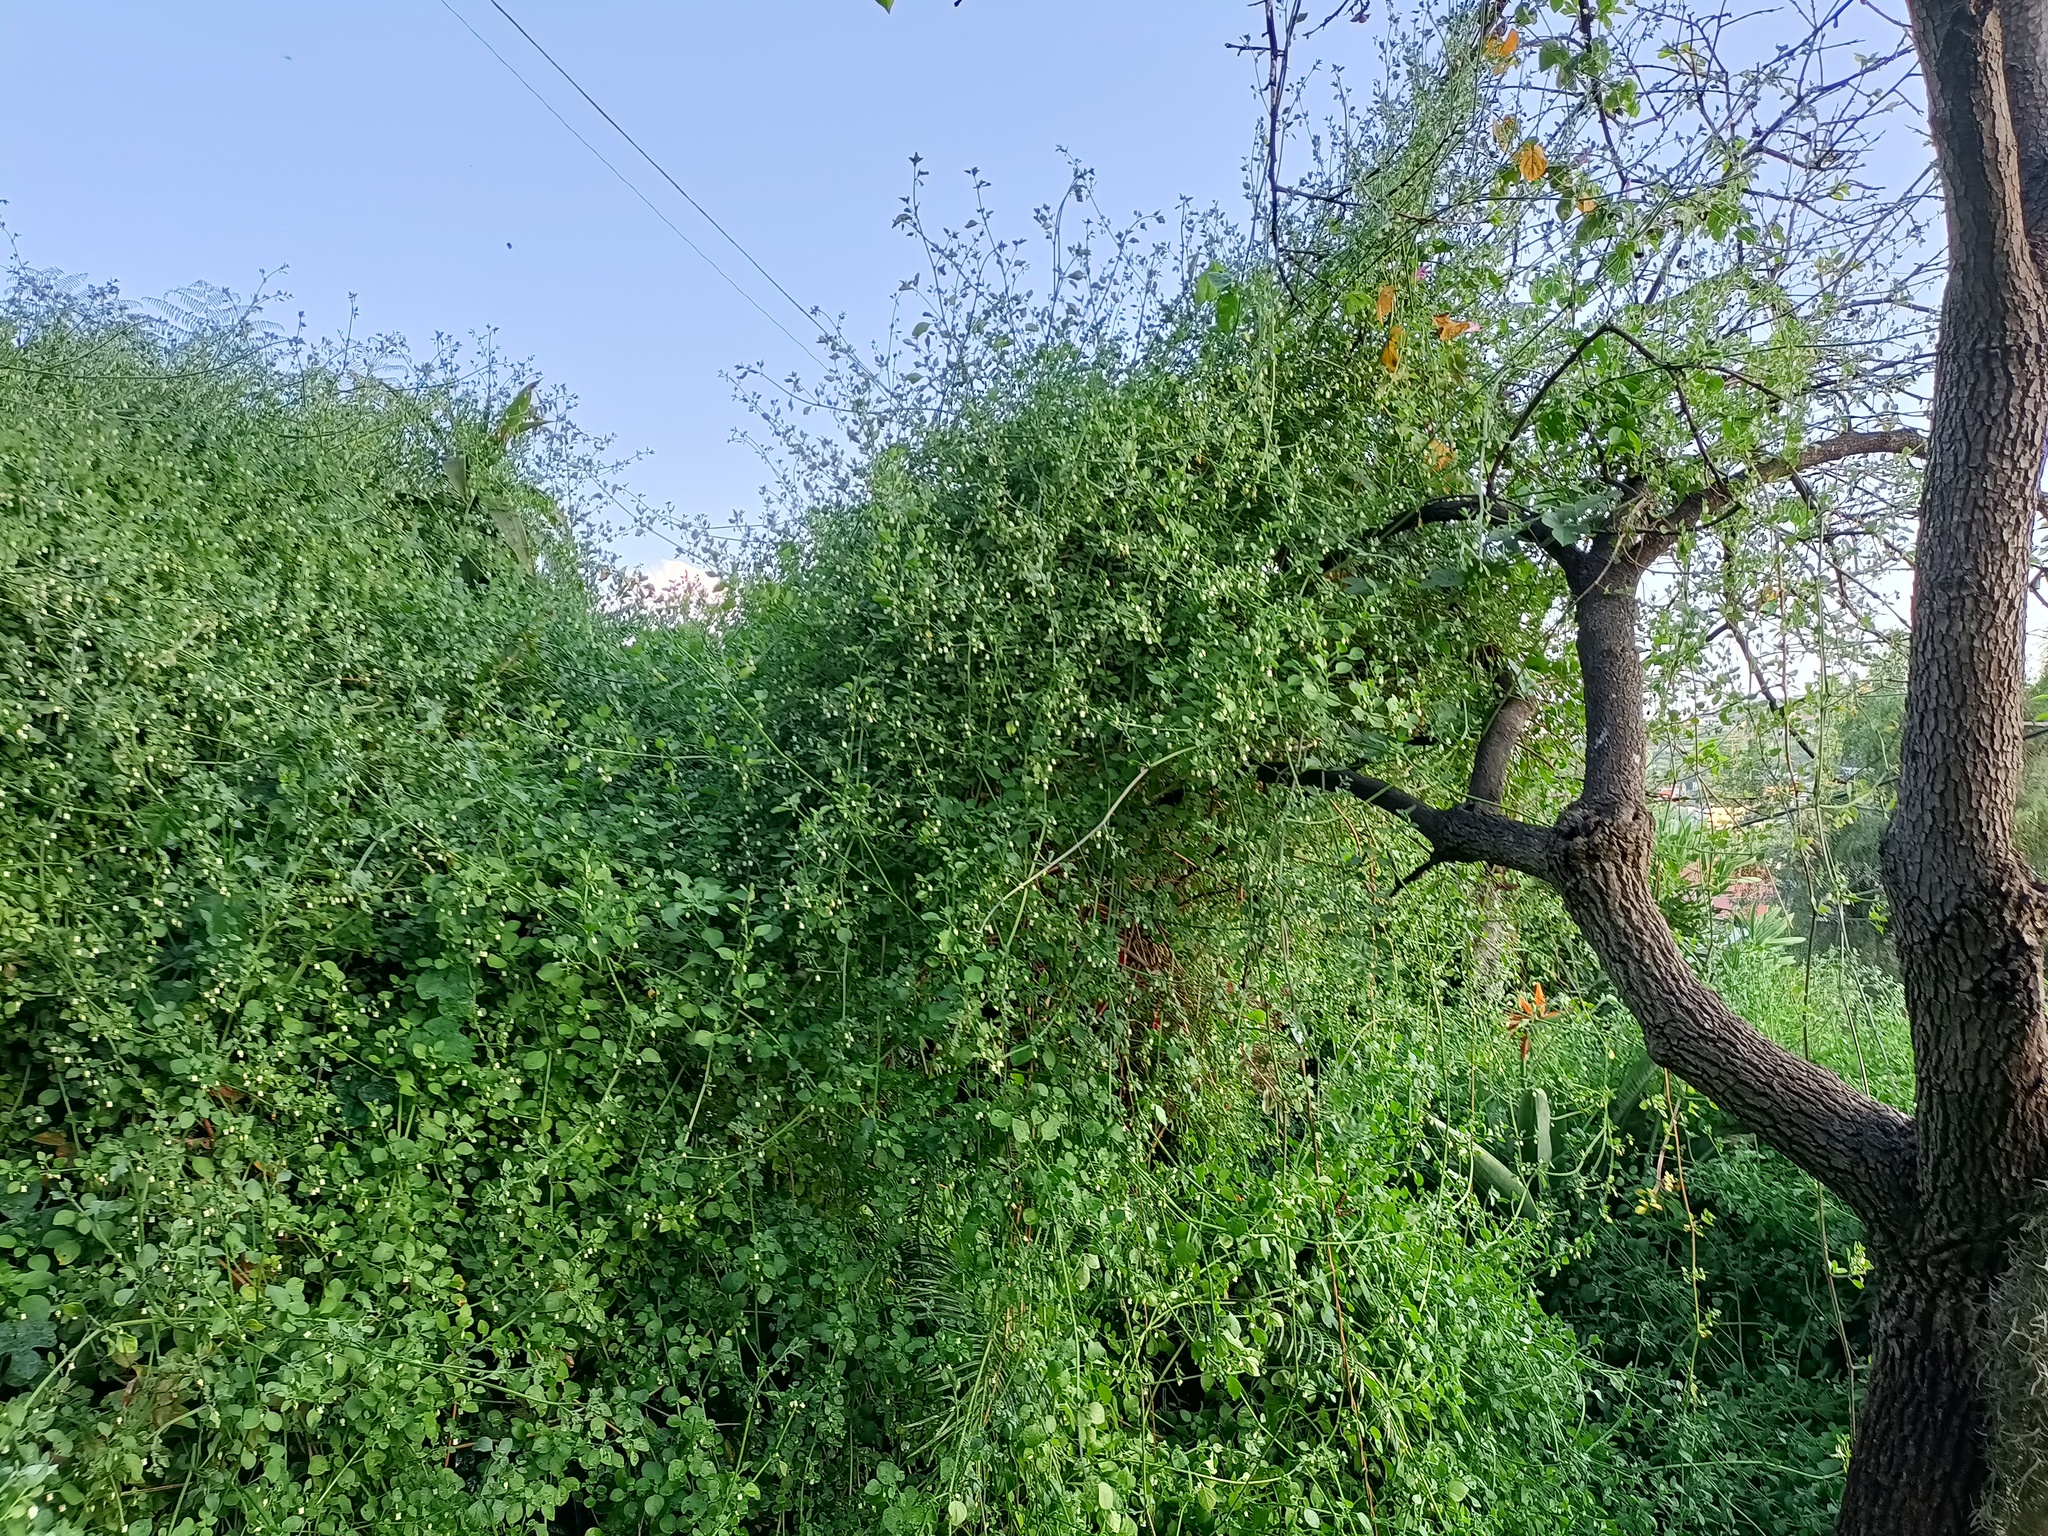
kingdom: Plantae
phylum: Tracheophyta
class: Magnoliopsida
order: Solanales
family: Solanaceae
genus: Salpichroa
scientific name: Salpichroa origanifolia
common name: Lily-of-the-valley-vine
